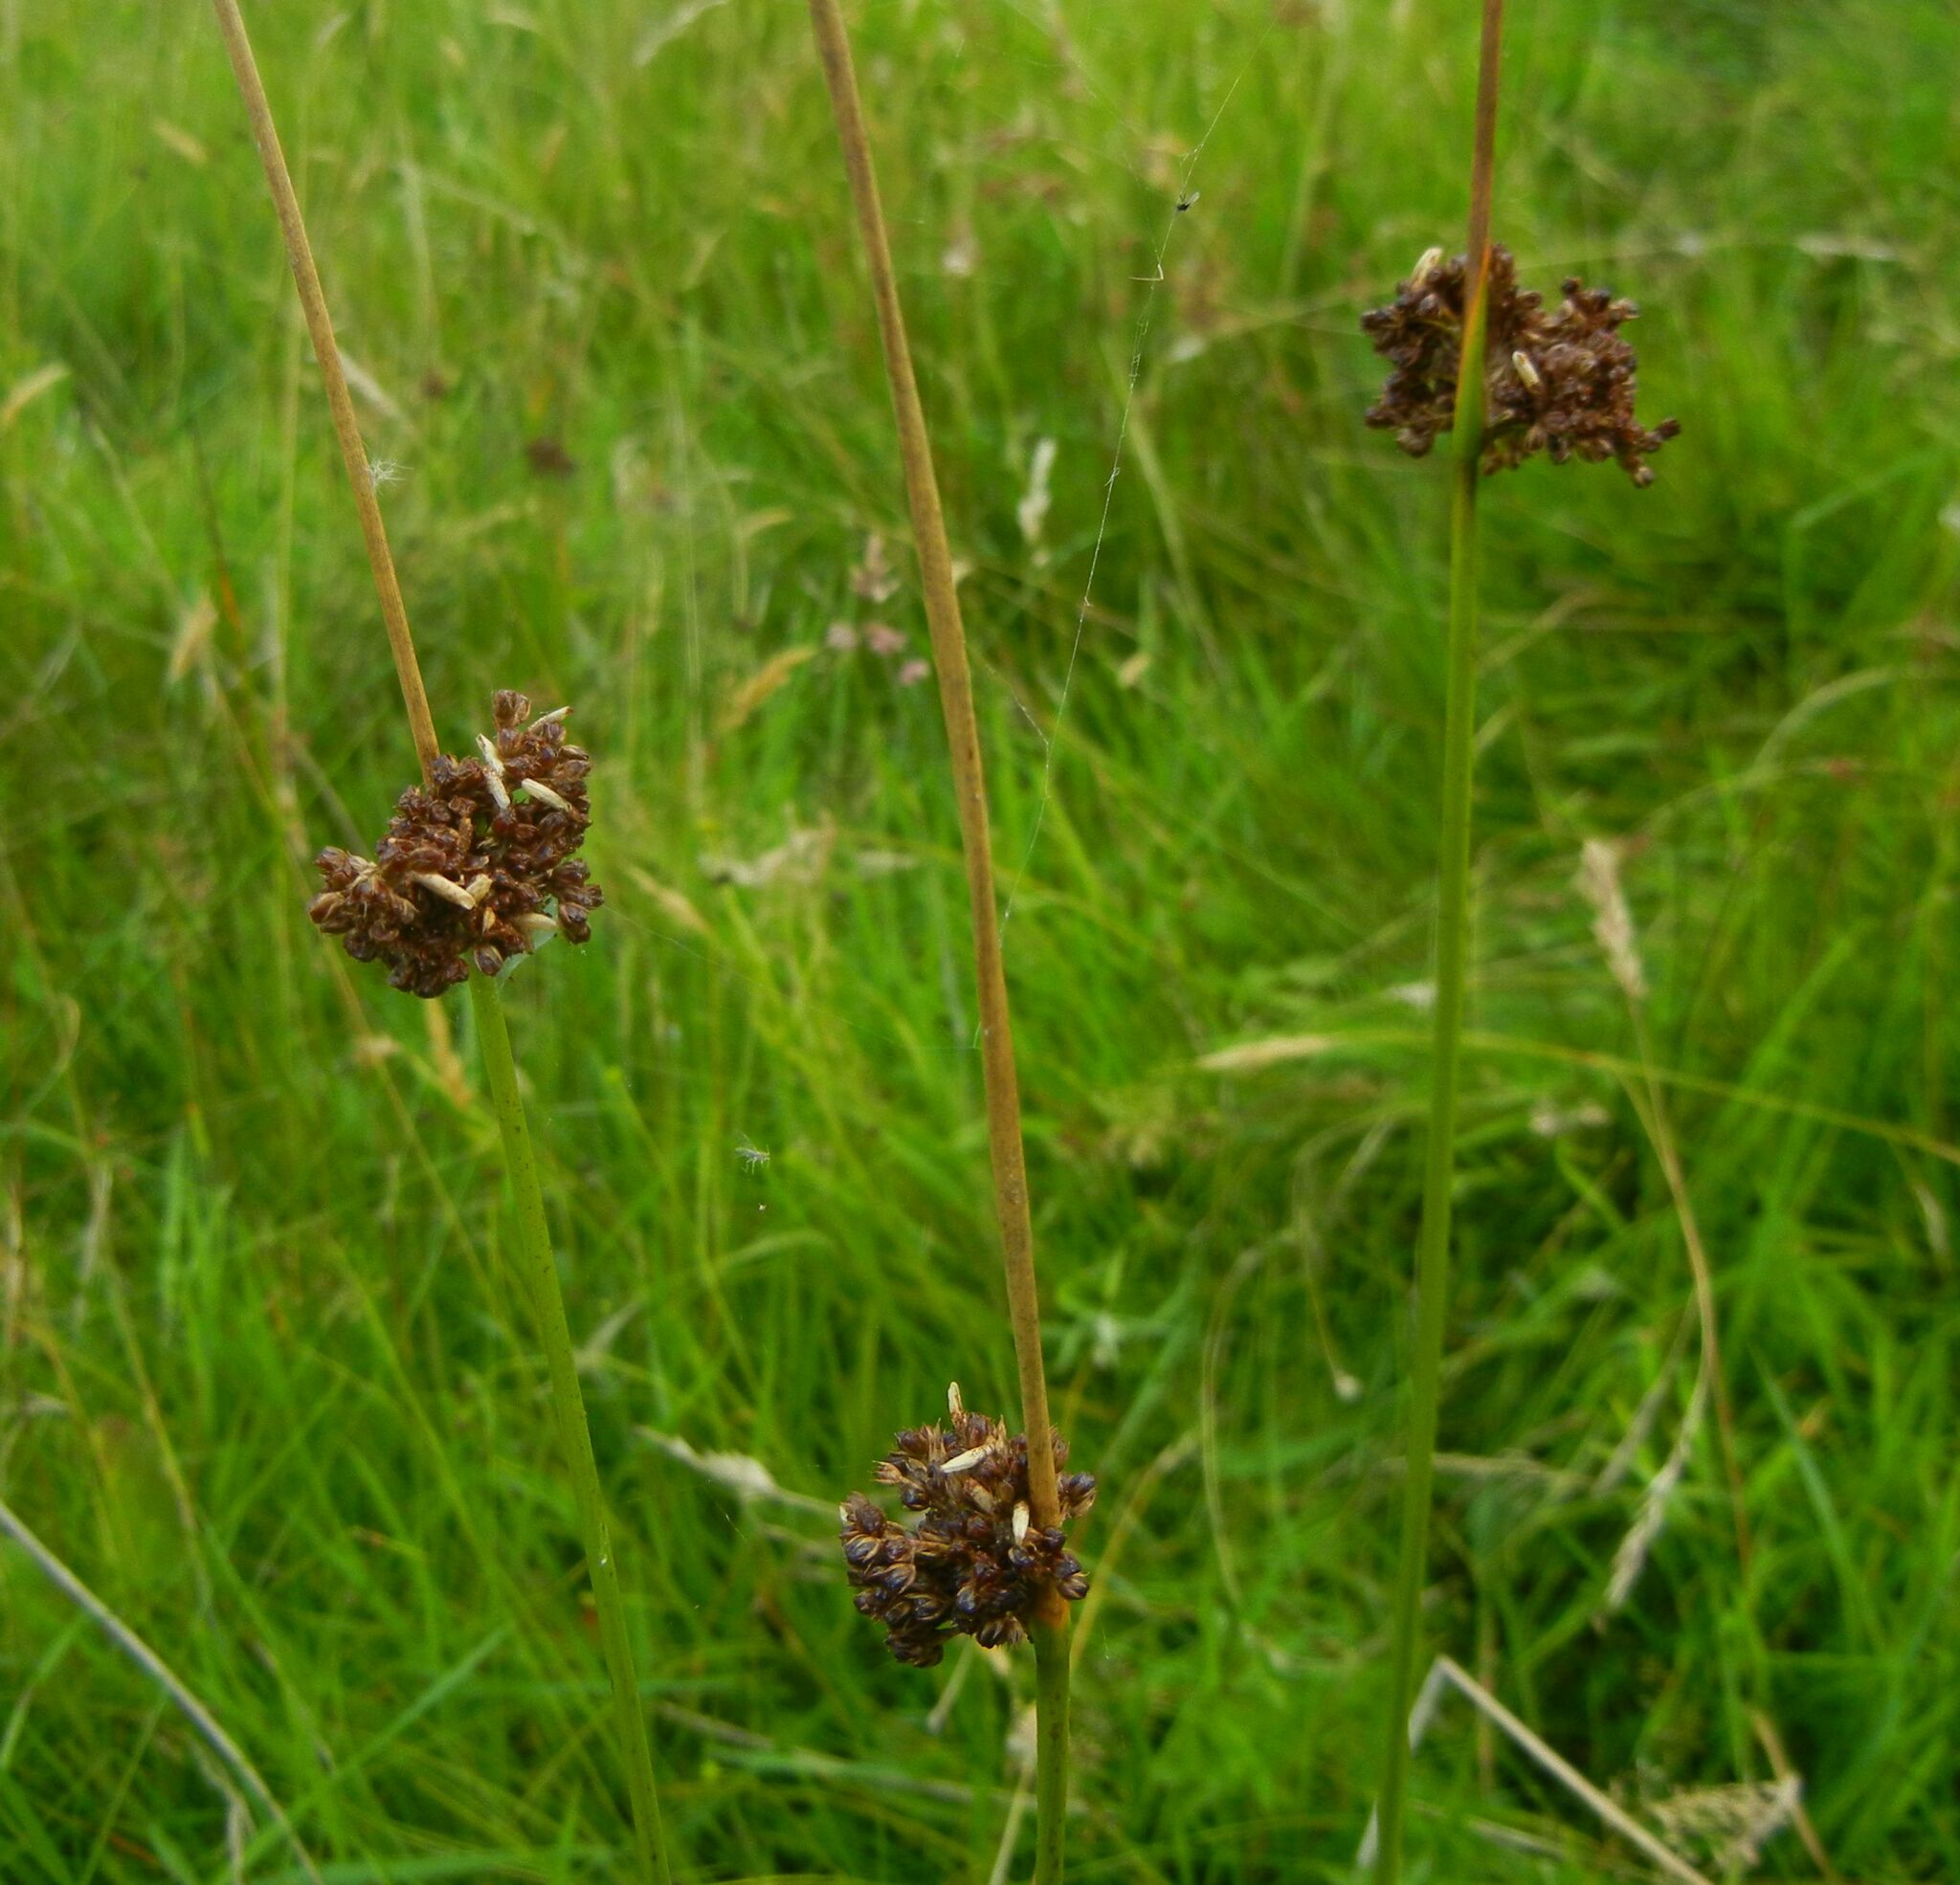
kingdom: Plantae
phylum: Tracheophyta
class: Liliopsida
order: Poales
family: Juncaceae
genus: Juncus
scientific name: Juncus conglomeratus
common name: Compact rush
